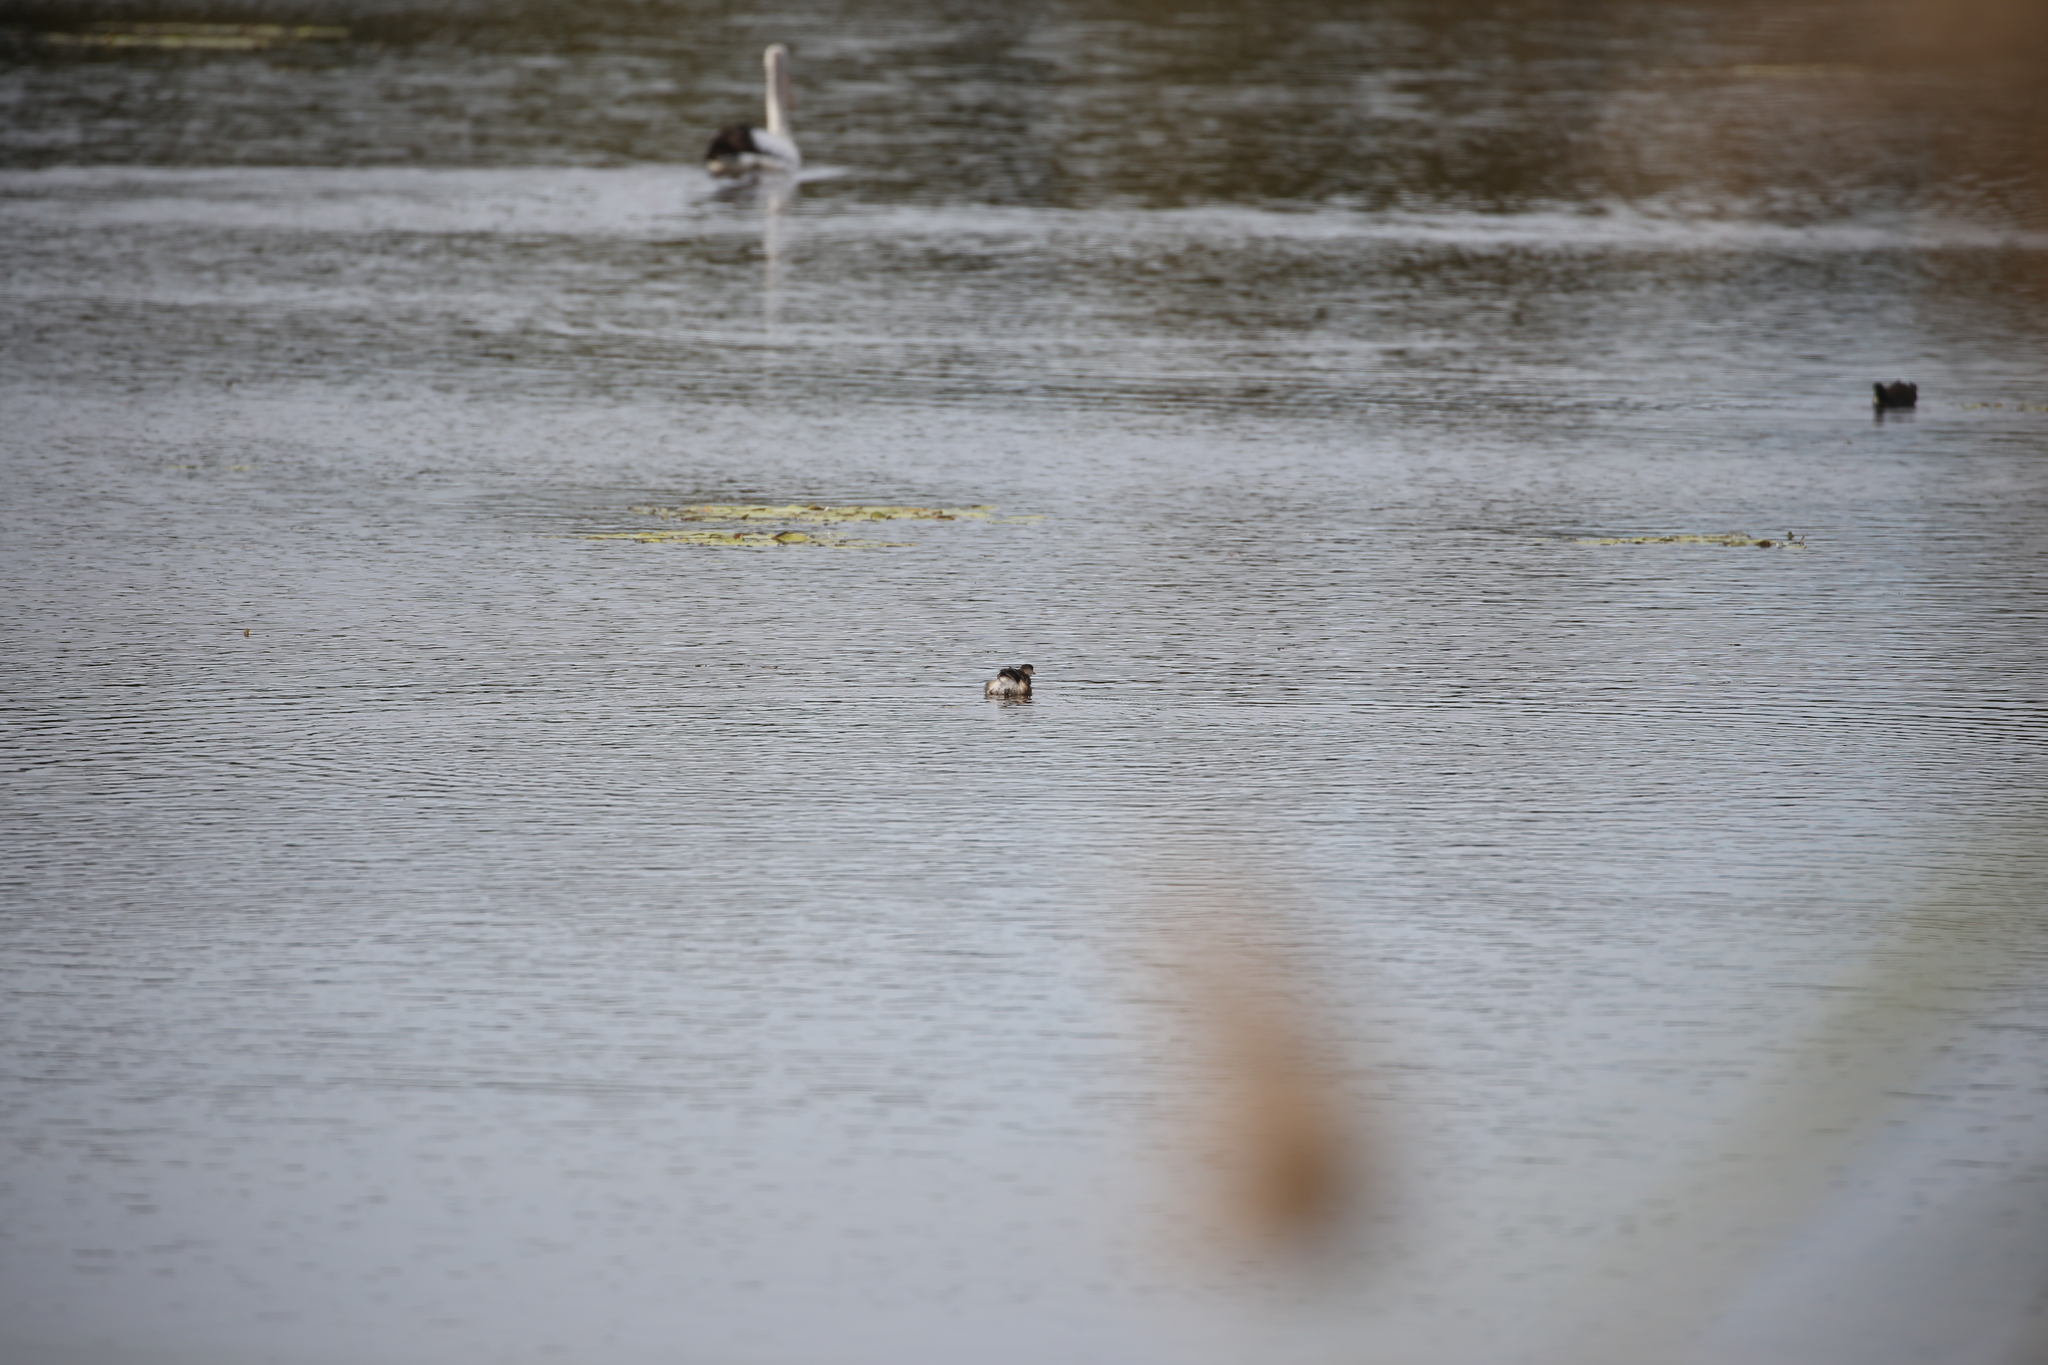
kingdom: Animalia
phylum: Chordata
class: Aves
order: Podicipediformes
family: Podicipedidae
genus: Tachybaptus
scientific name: Tachybaptus novaehollandiae
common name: Australasian grebe
